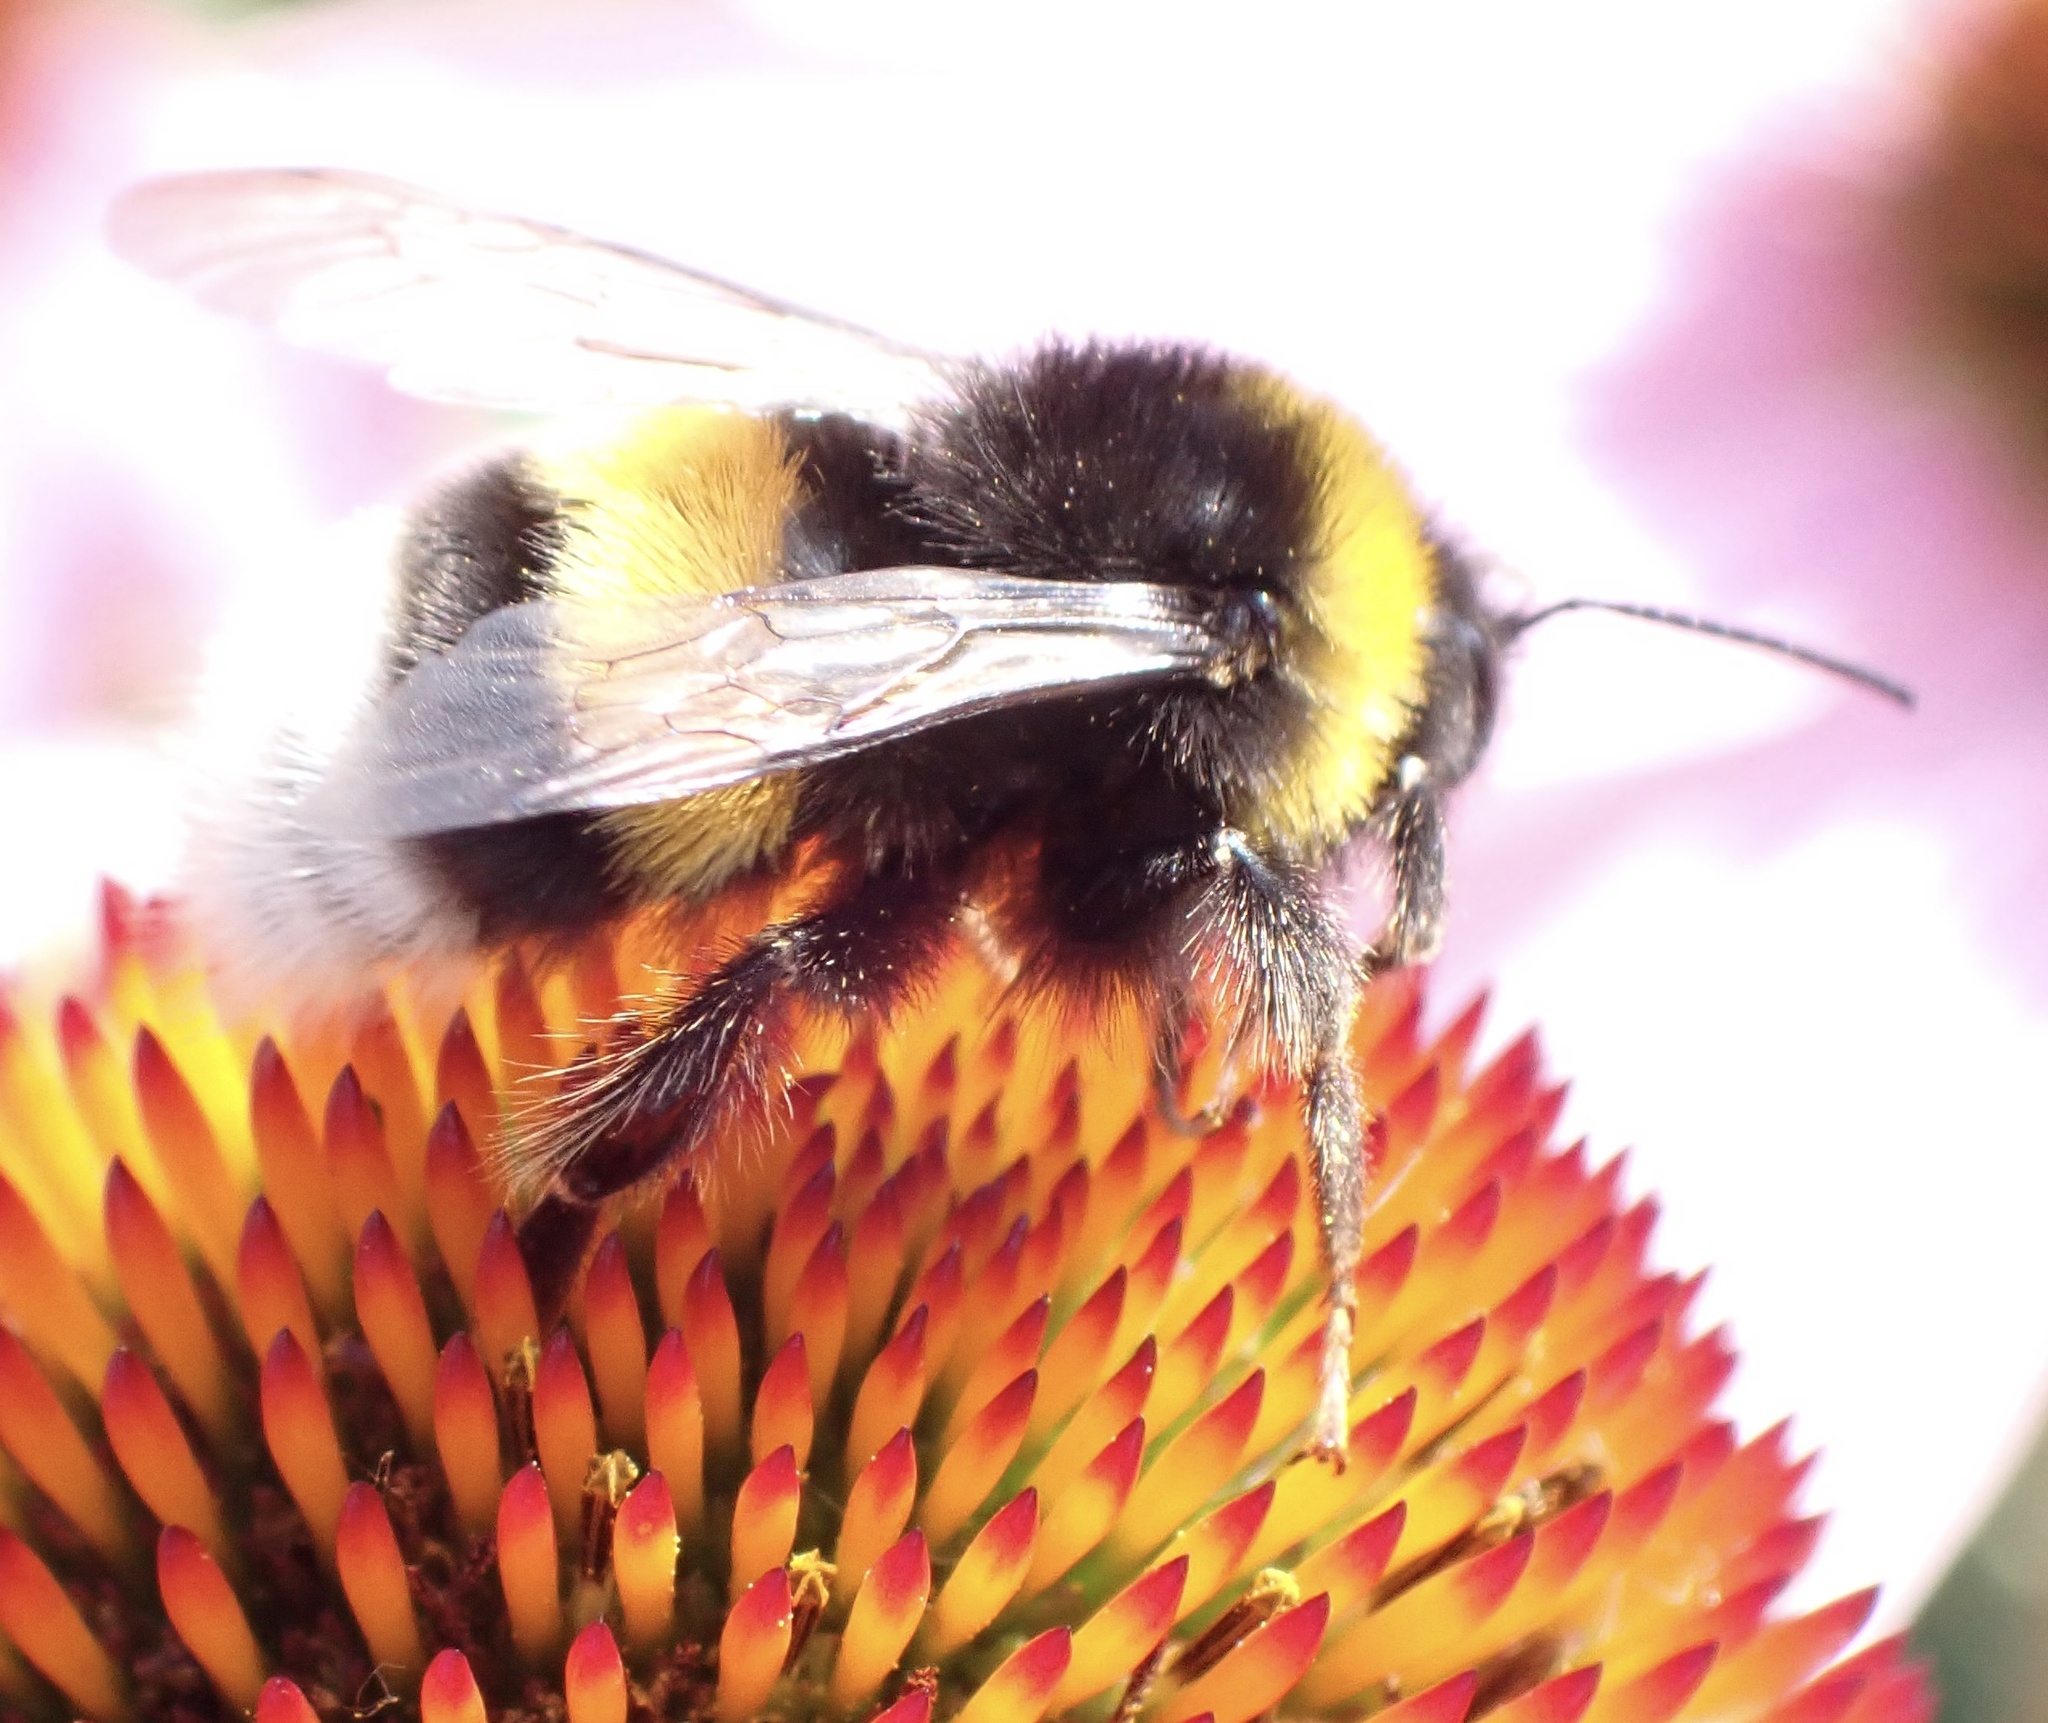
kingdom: Animalia
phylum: Arthropoda
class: Insecta
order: Hymenoptera
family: Apidae
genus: Bombus
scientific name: Bombus terrestris
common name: Buff-tailed bumblebee
